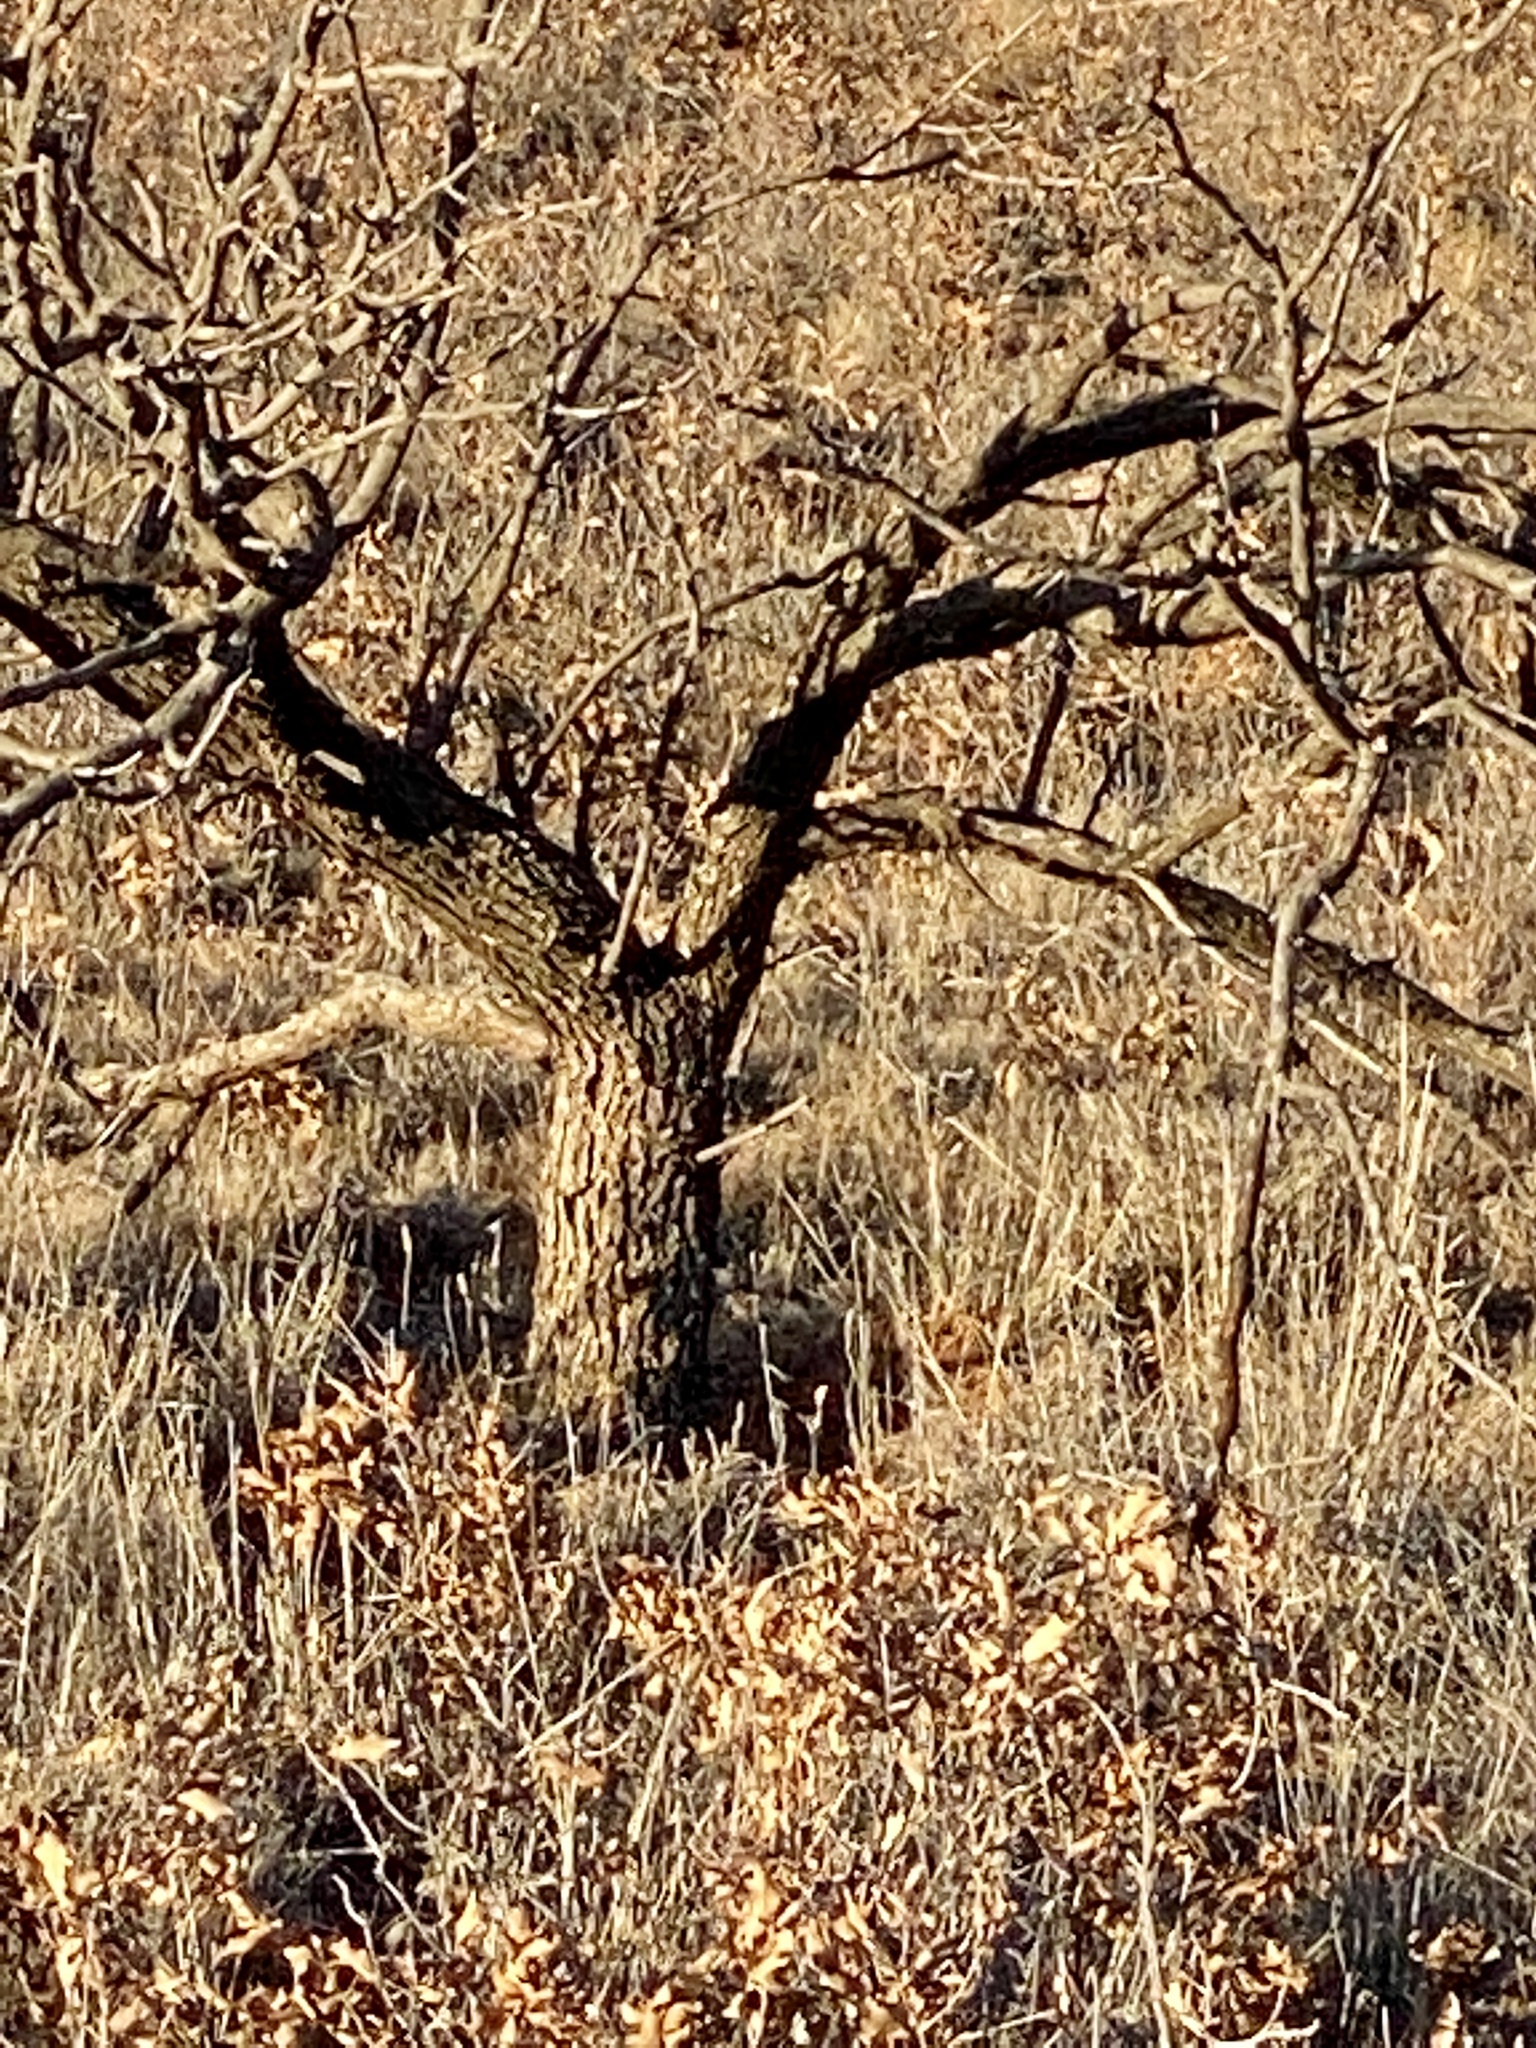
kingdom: Plantae
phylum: Tracheophyta
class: Magnoliopsida
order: Fabales
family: Fabaceae
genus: Prosopis
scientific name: Prosopis glandulosa
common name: Honey mesquite
